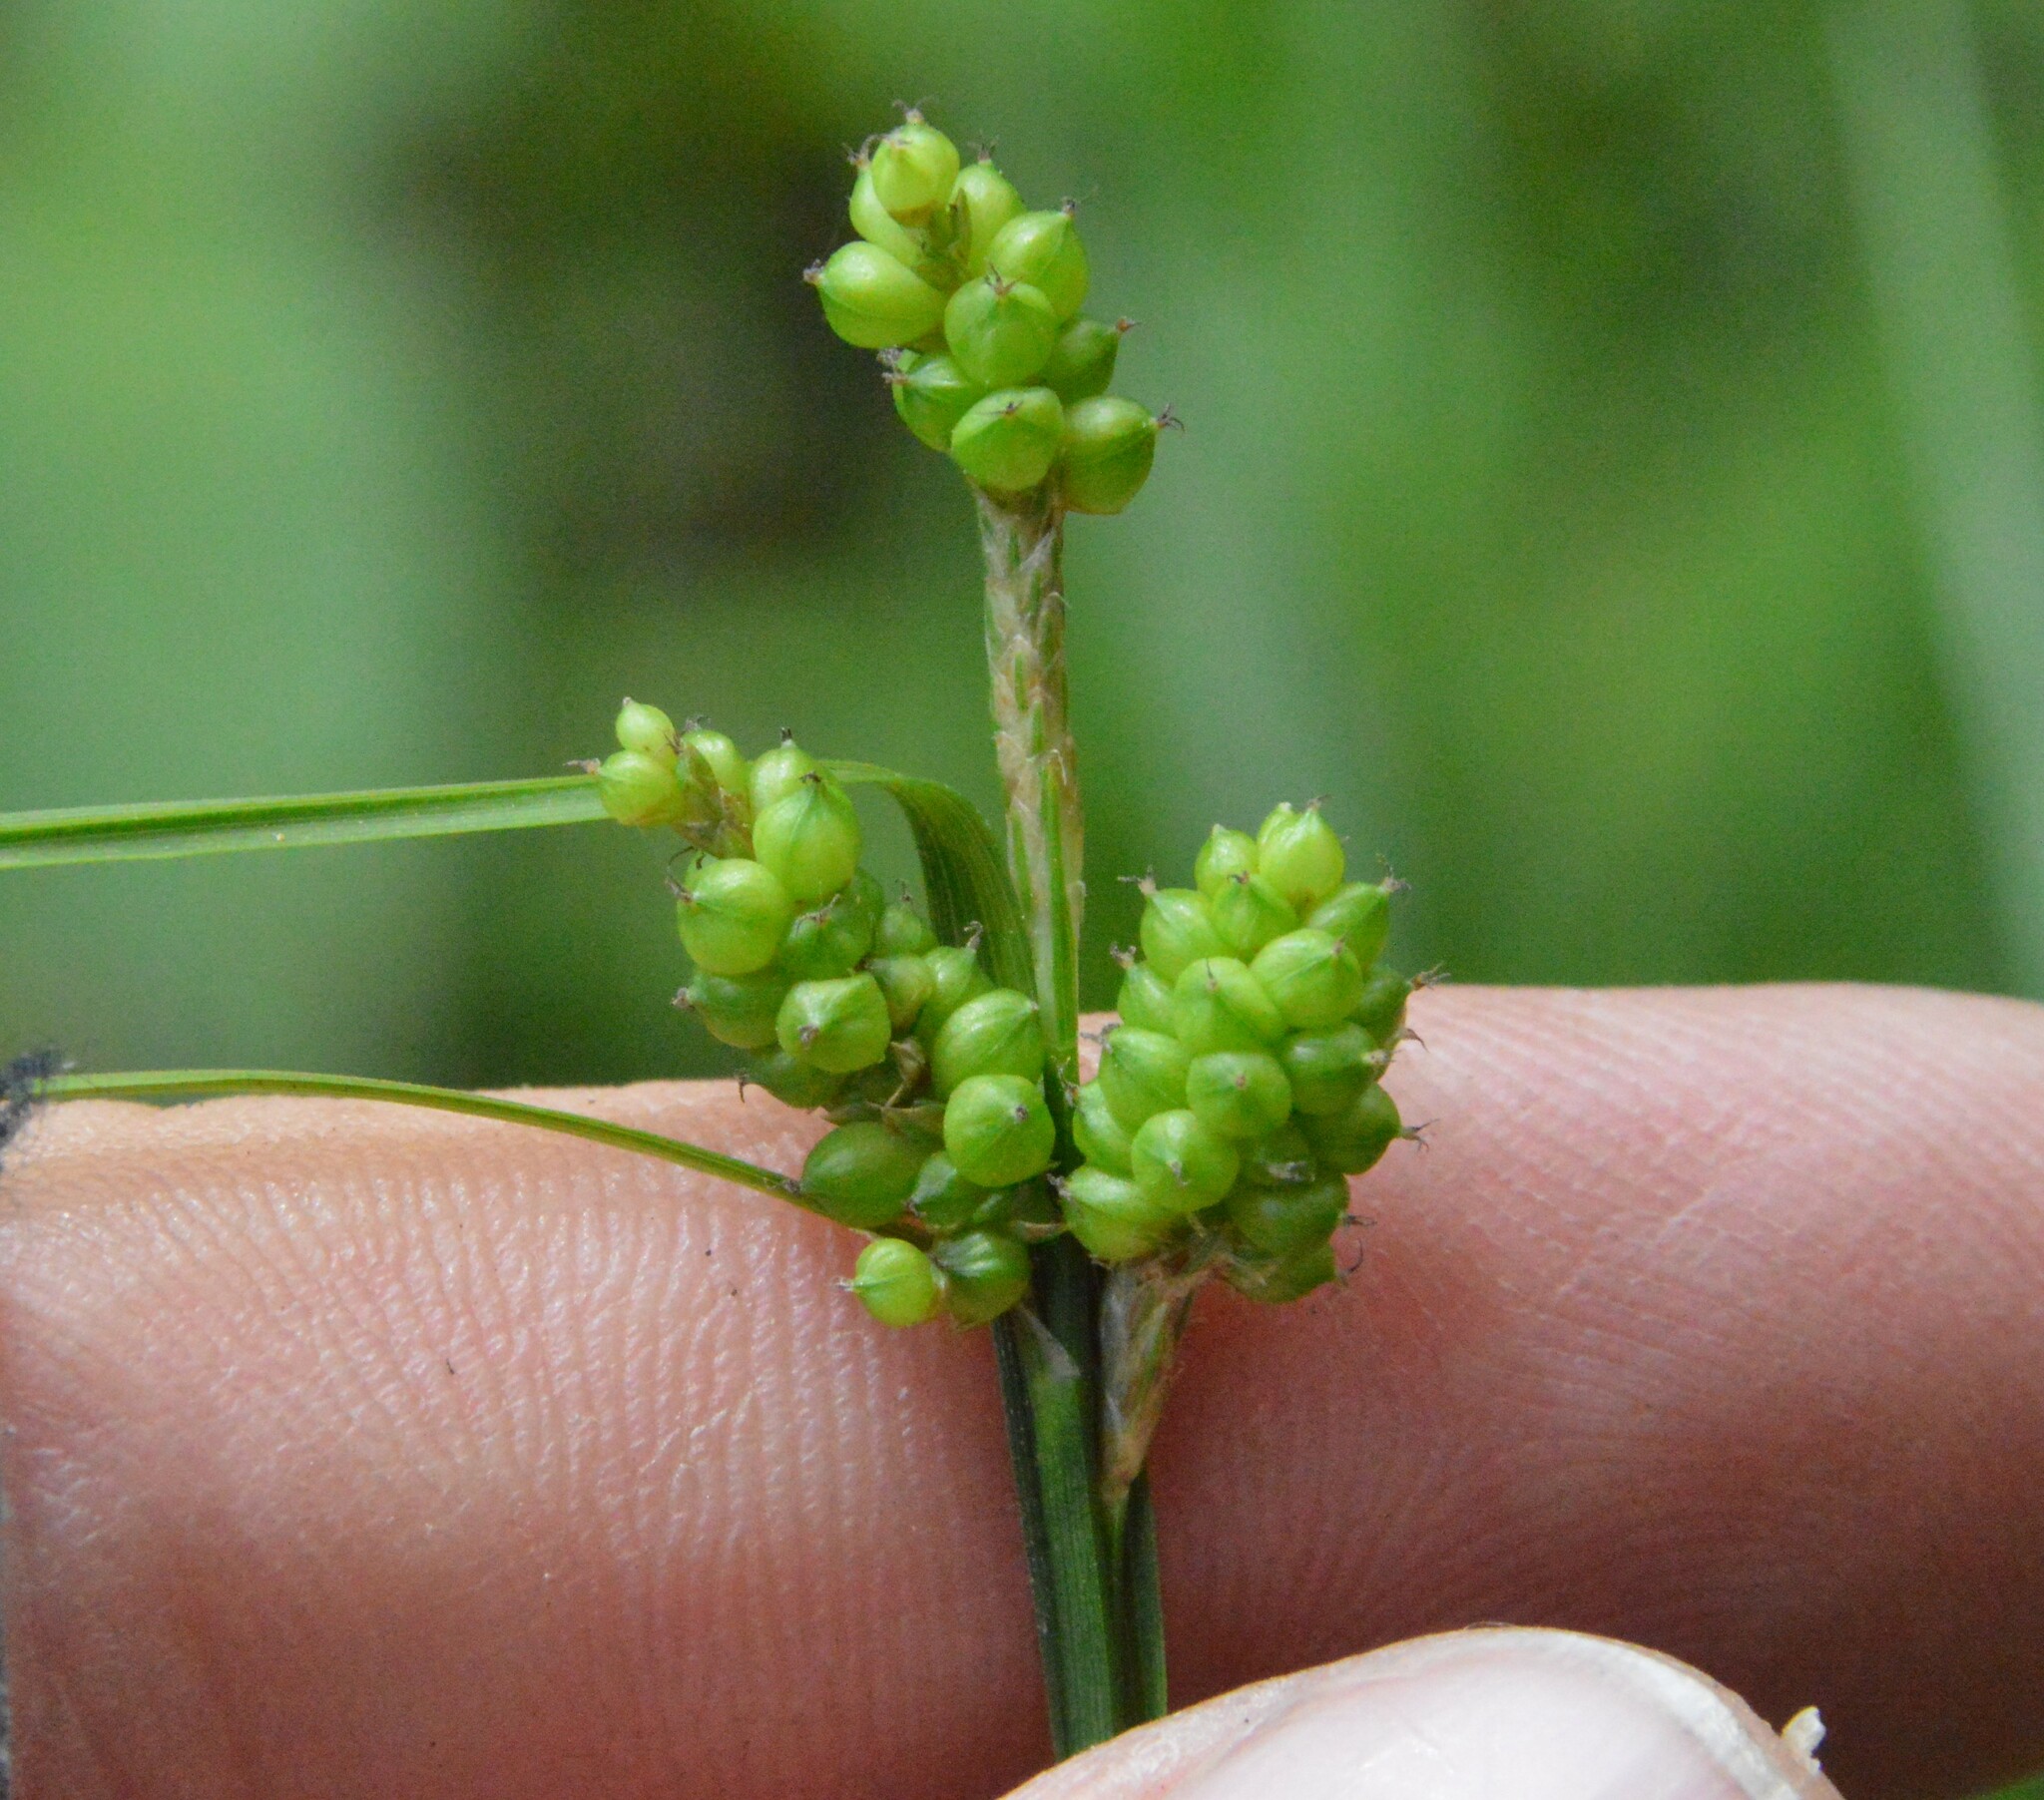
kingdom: Plantae
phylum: Tracheophyta
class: Liliopsida
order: Poales
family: Cyperaceae
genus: Carex
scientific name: Carex caroliniana
